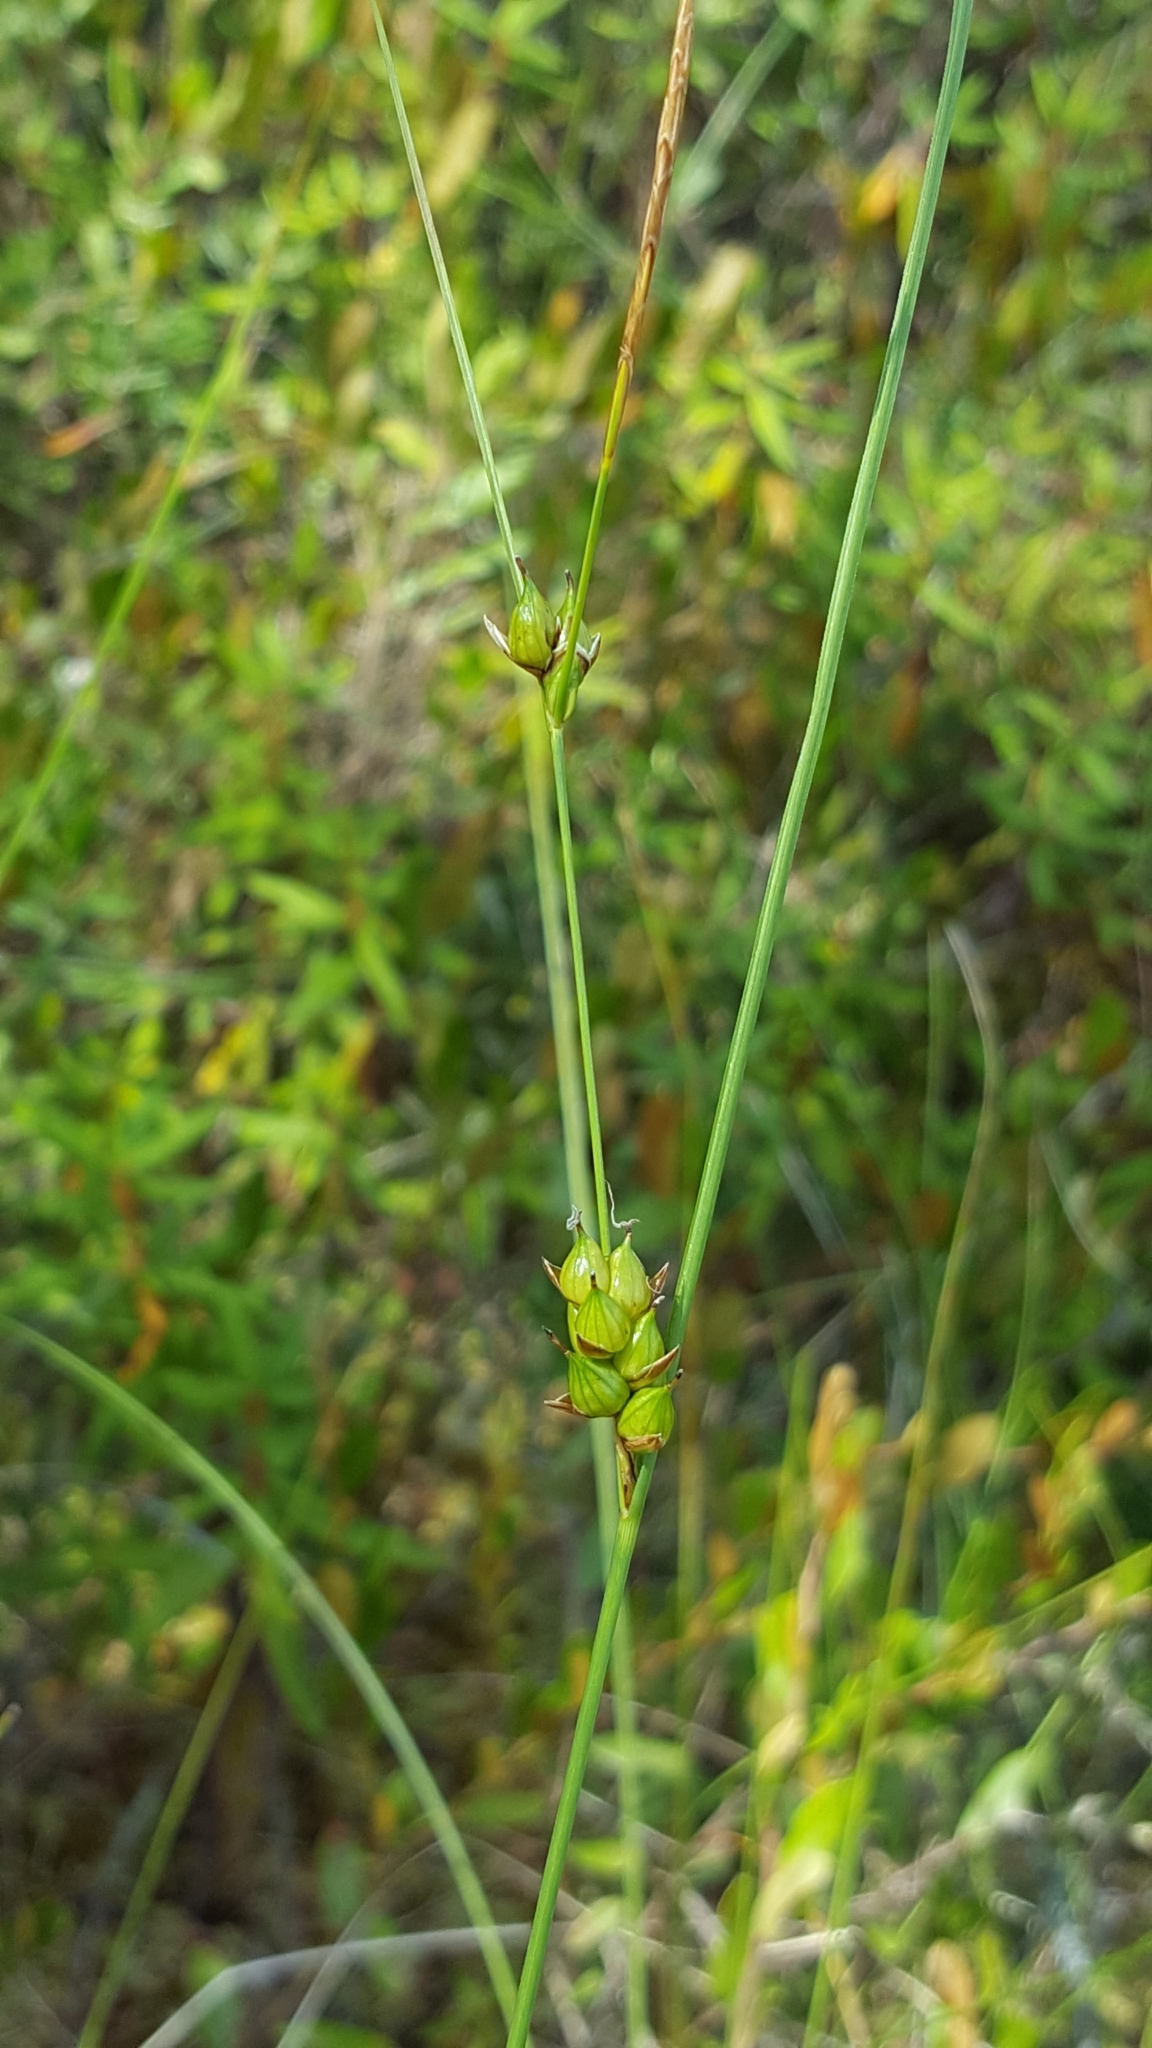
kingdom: Plantae
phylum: Tracheophyta
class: Liliopsida
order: Poales
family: Cyperaceae
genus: Carex
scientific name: Carex oligosperma
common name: Few-seed sedge
